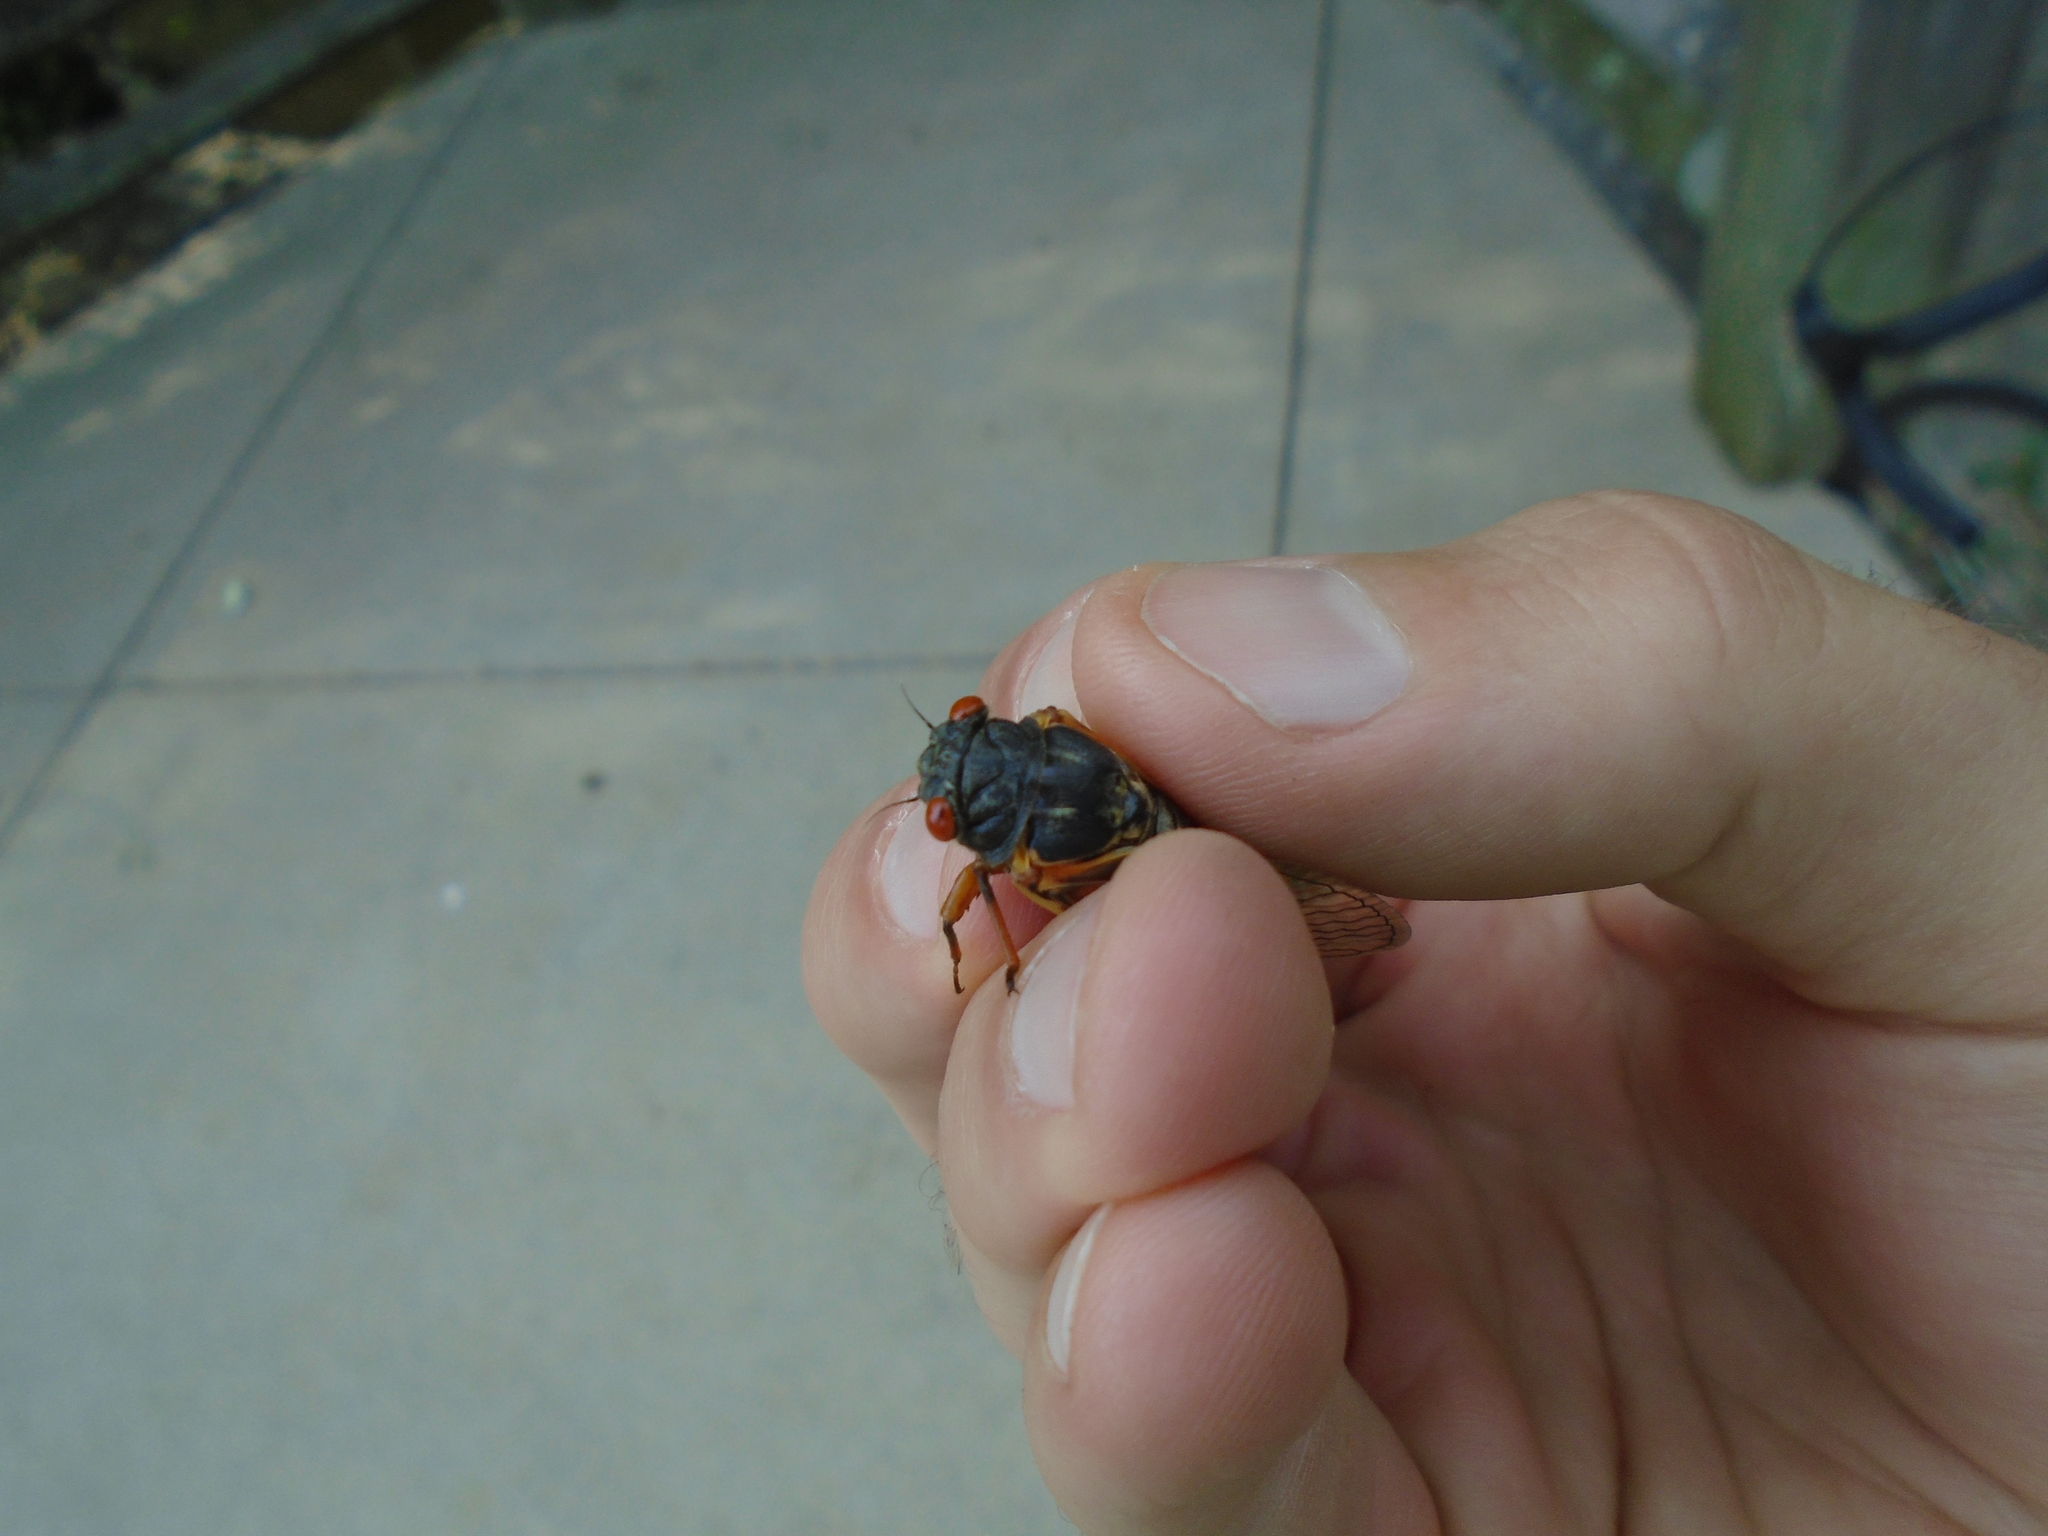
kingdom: Animalia
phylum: Arthropoda
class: Insecta
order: Hemiptera
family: Cicadidae
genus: Magicicada
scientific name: Magicicada cassini
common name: Cassin's 17-year cicada
